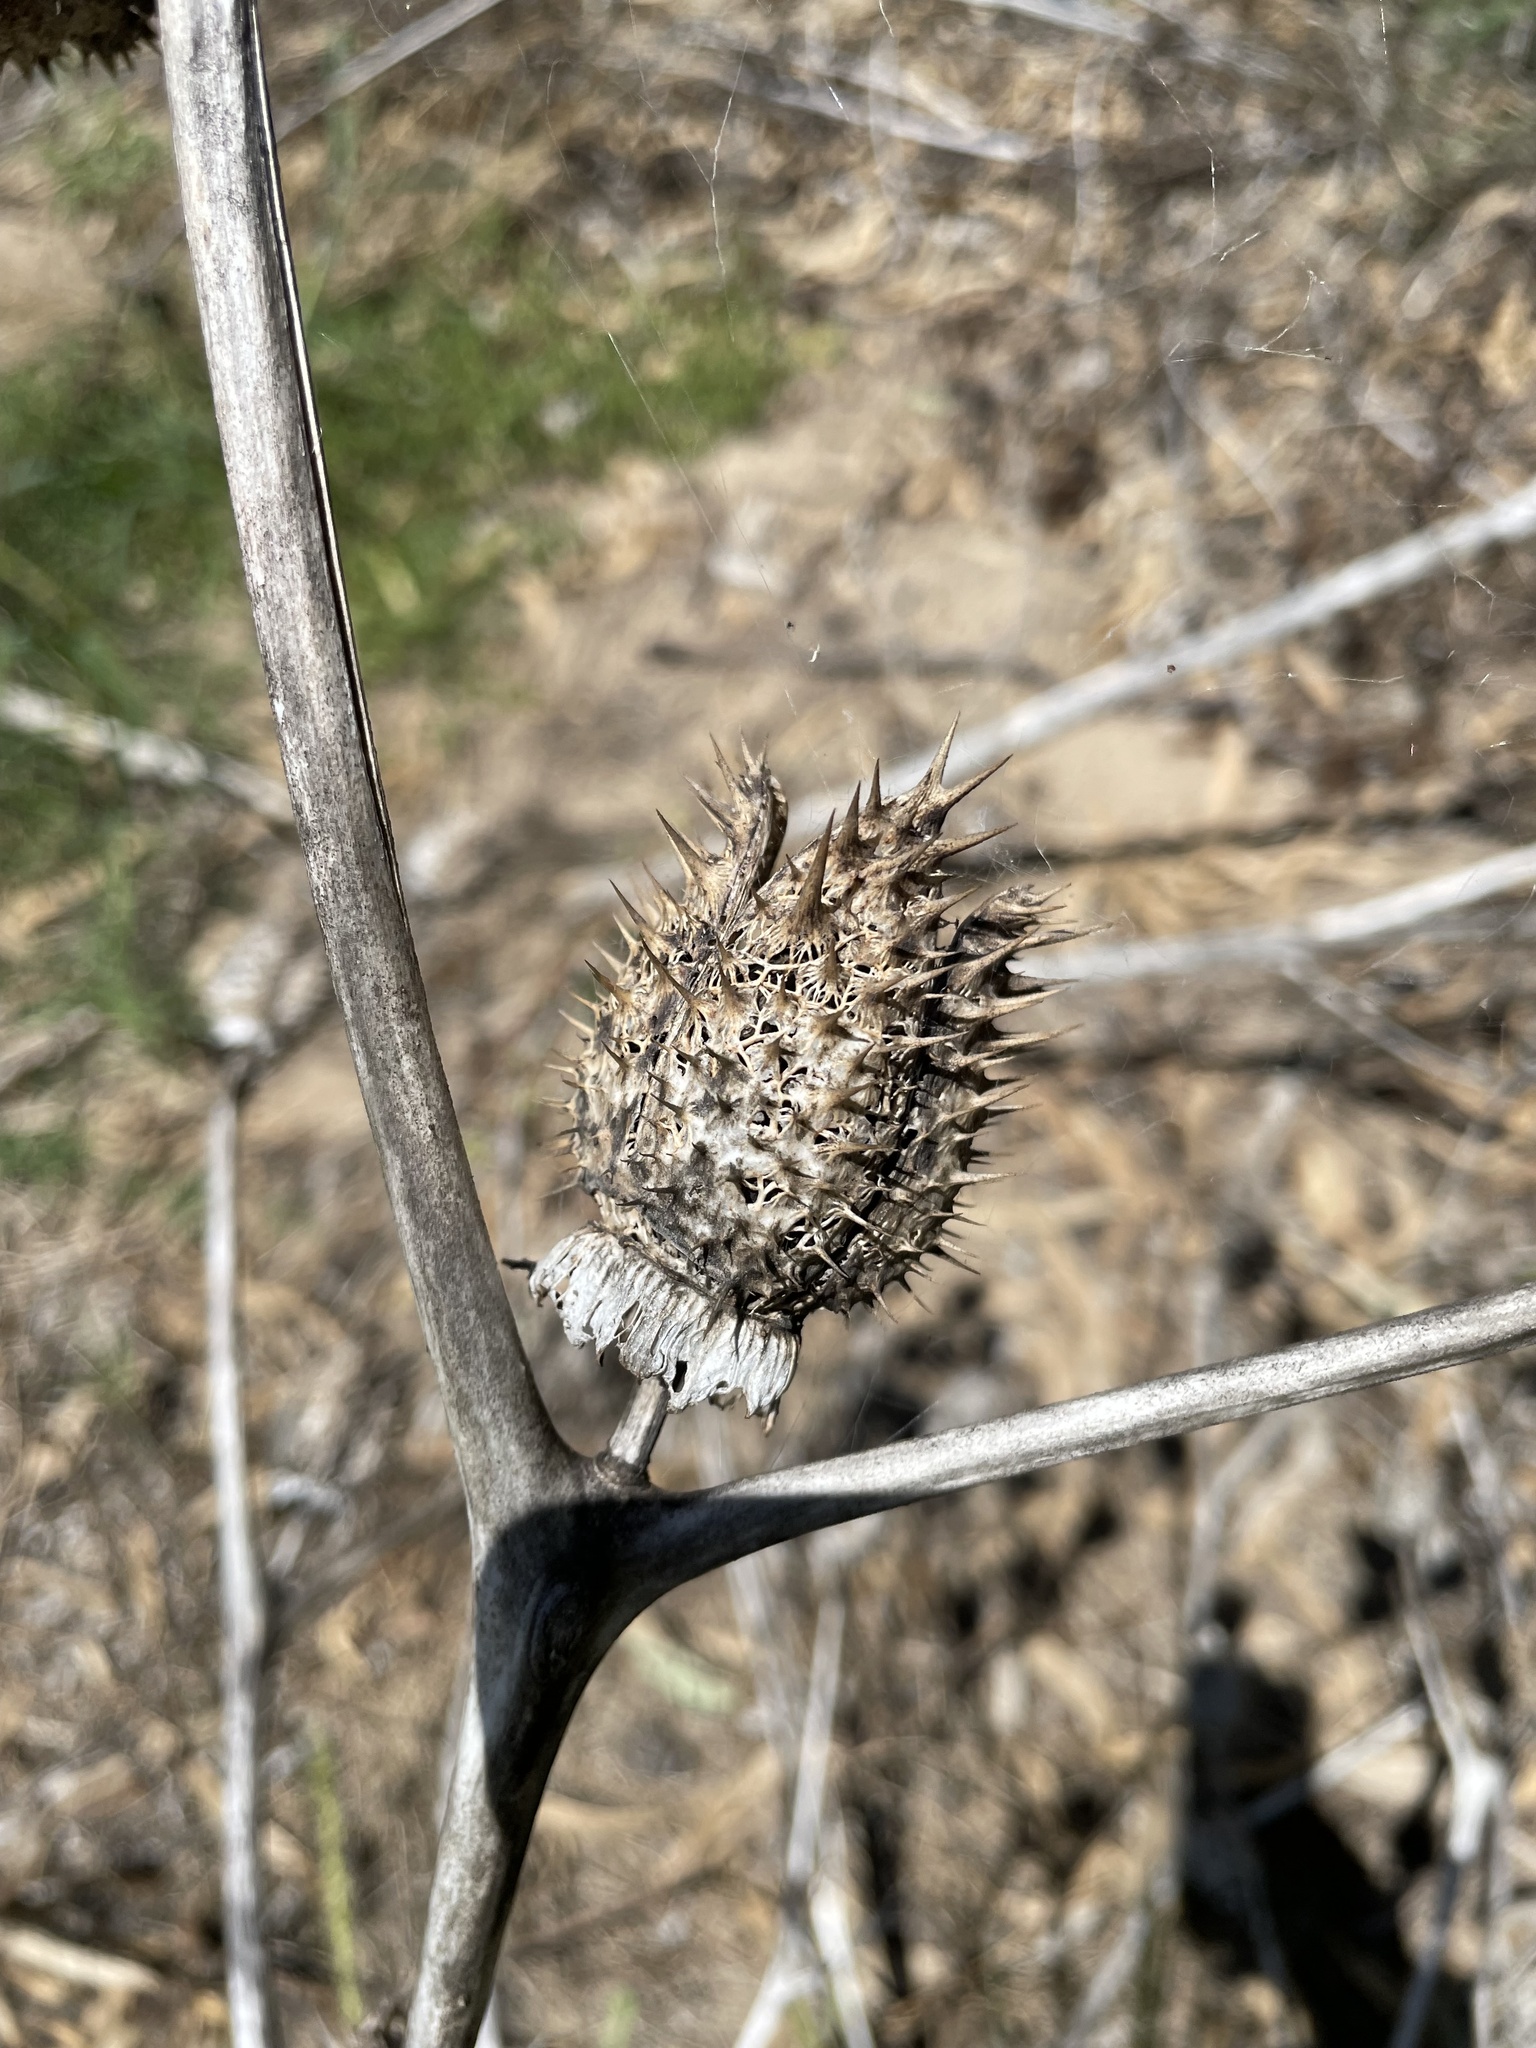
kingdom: Plantae
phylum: Tracheophyta
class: Magnoliopsida
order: Solanales
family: Solanaceae
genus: Datura
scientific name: Datura stramonium
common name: Thorn-apple
